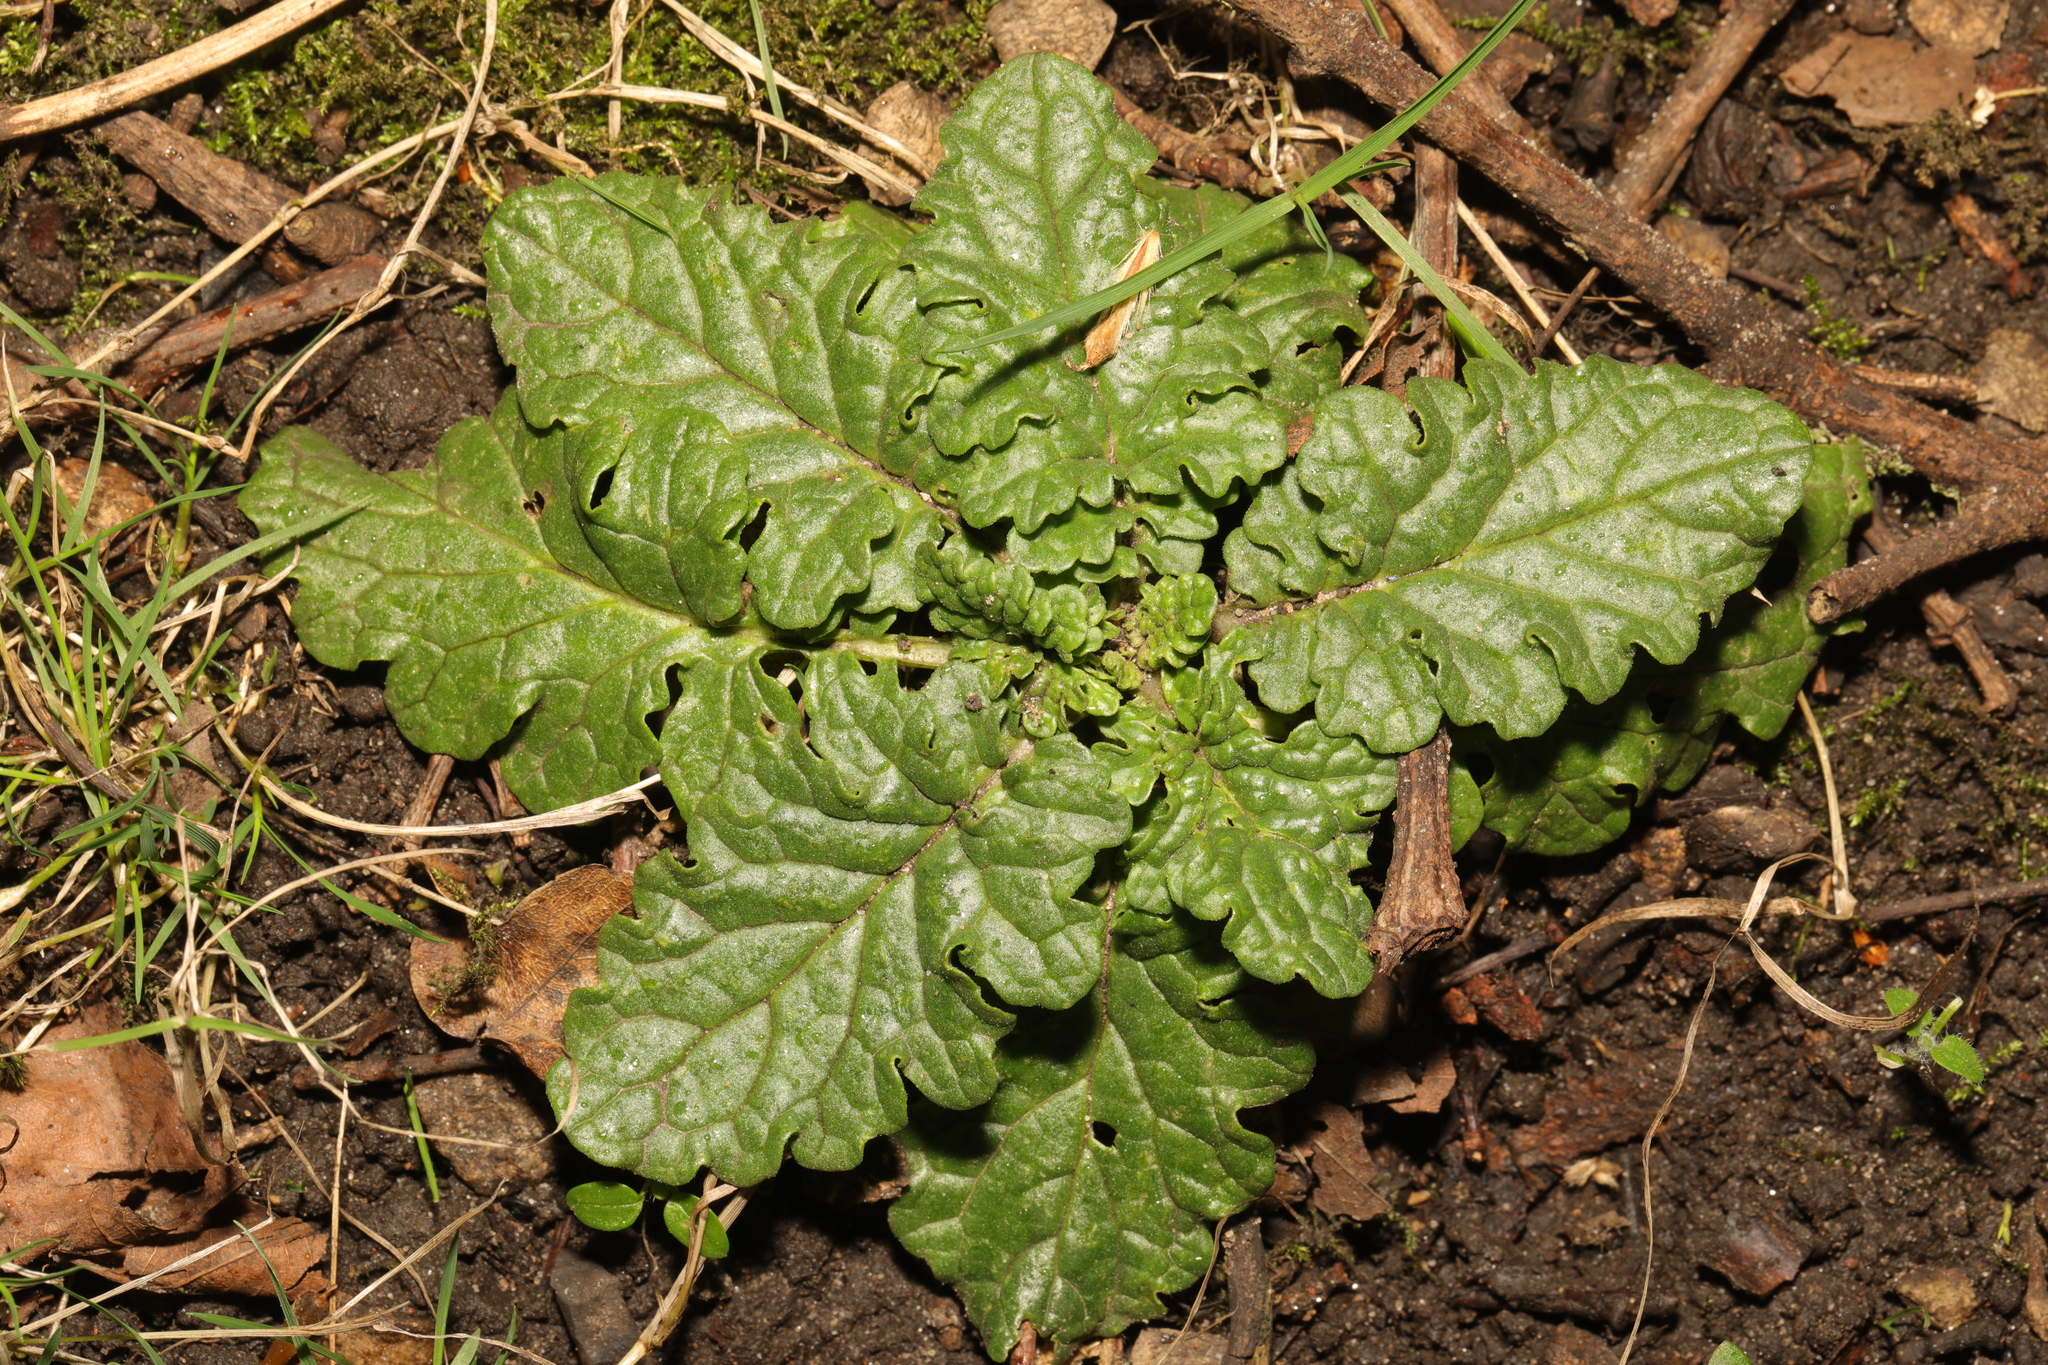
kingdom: Plantae
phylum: Tracheophyta
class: Magnoliopsida
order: Asterales
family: Asteraceae
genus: Jacobaea
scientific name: Jacobaea vulgaris
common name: Stinking willie
